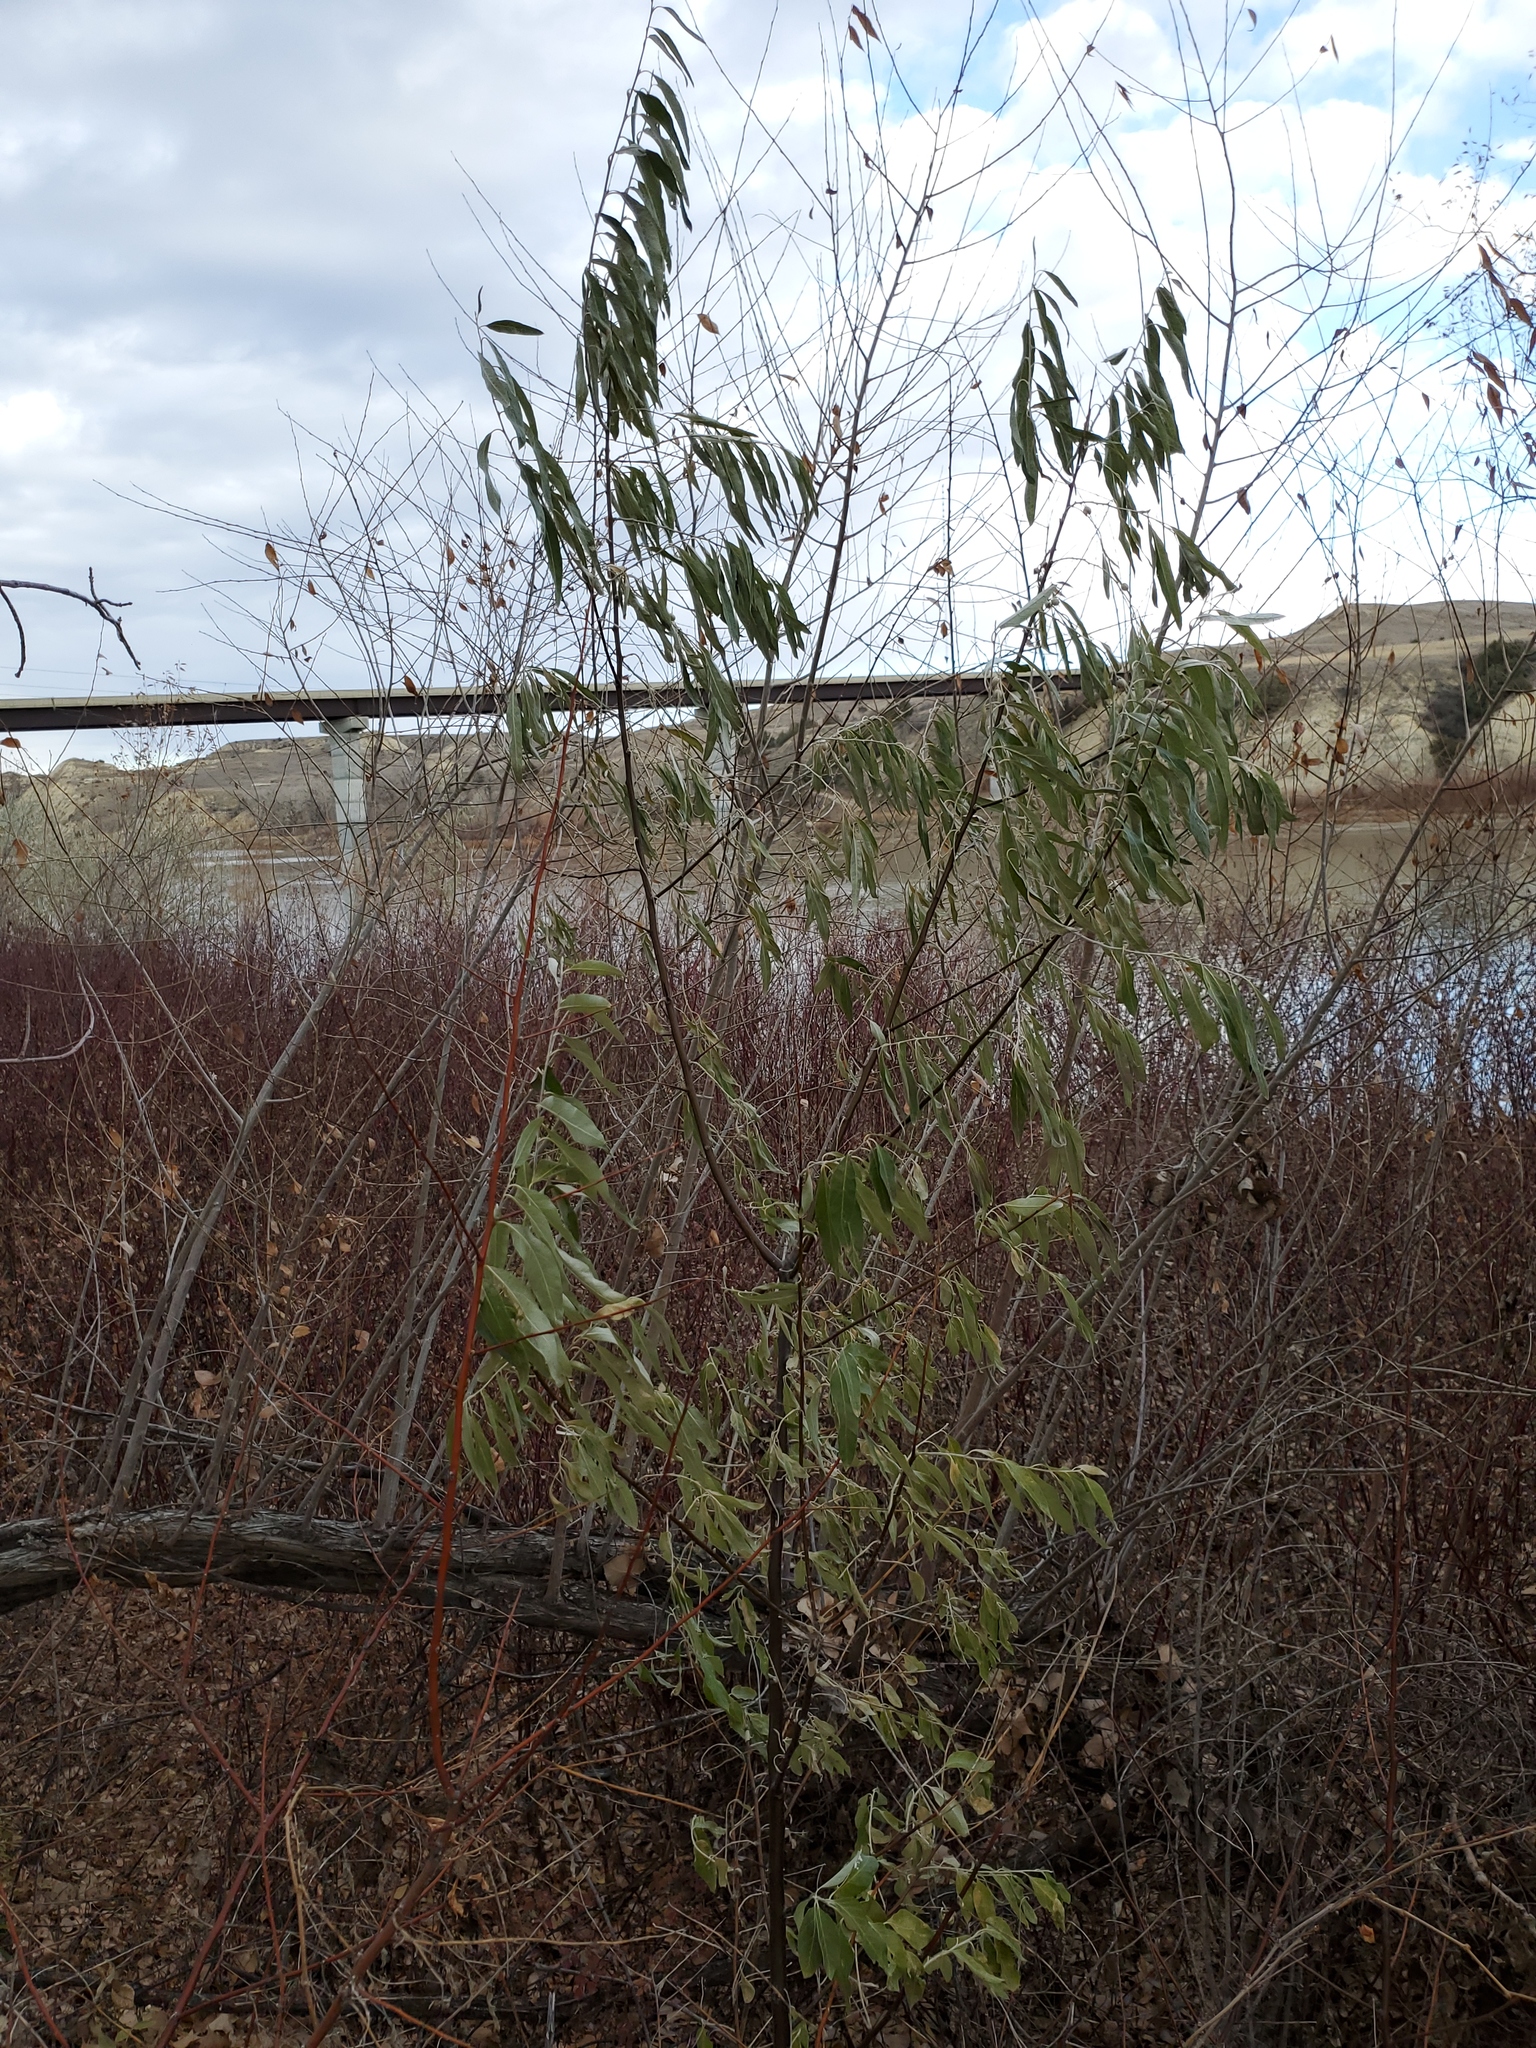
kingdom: Plantae
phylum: Tracheophyta
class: Magnoliopsida
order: Rosales
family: Elaeagnaceae
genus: Elaeagnus
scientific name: Elaeagnus angustifolia
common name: Russian olive
